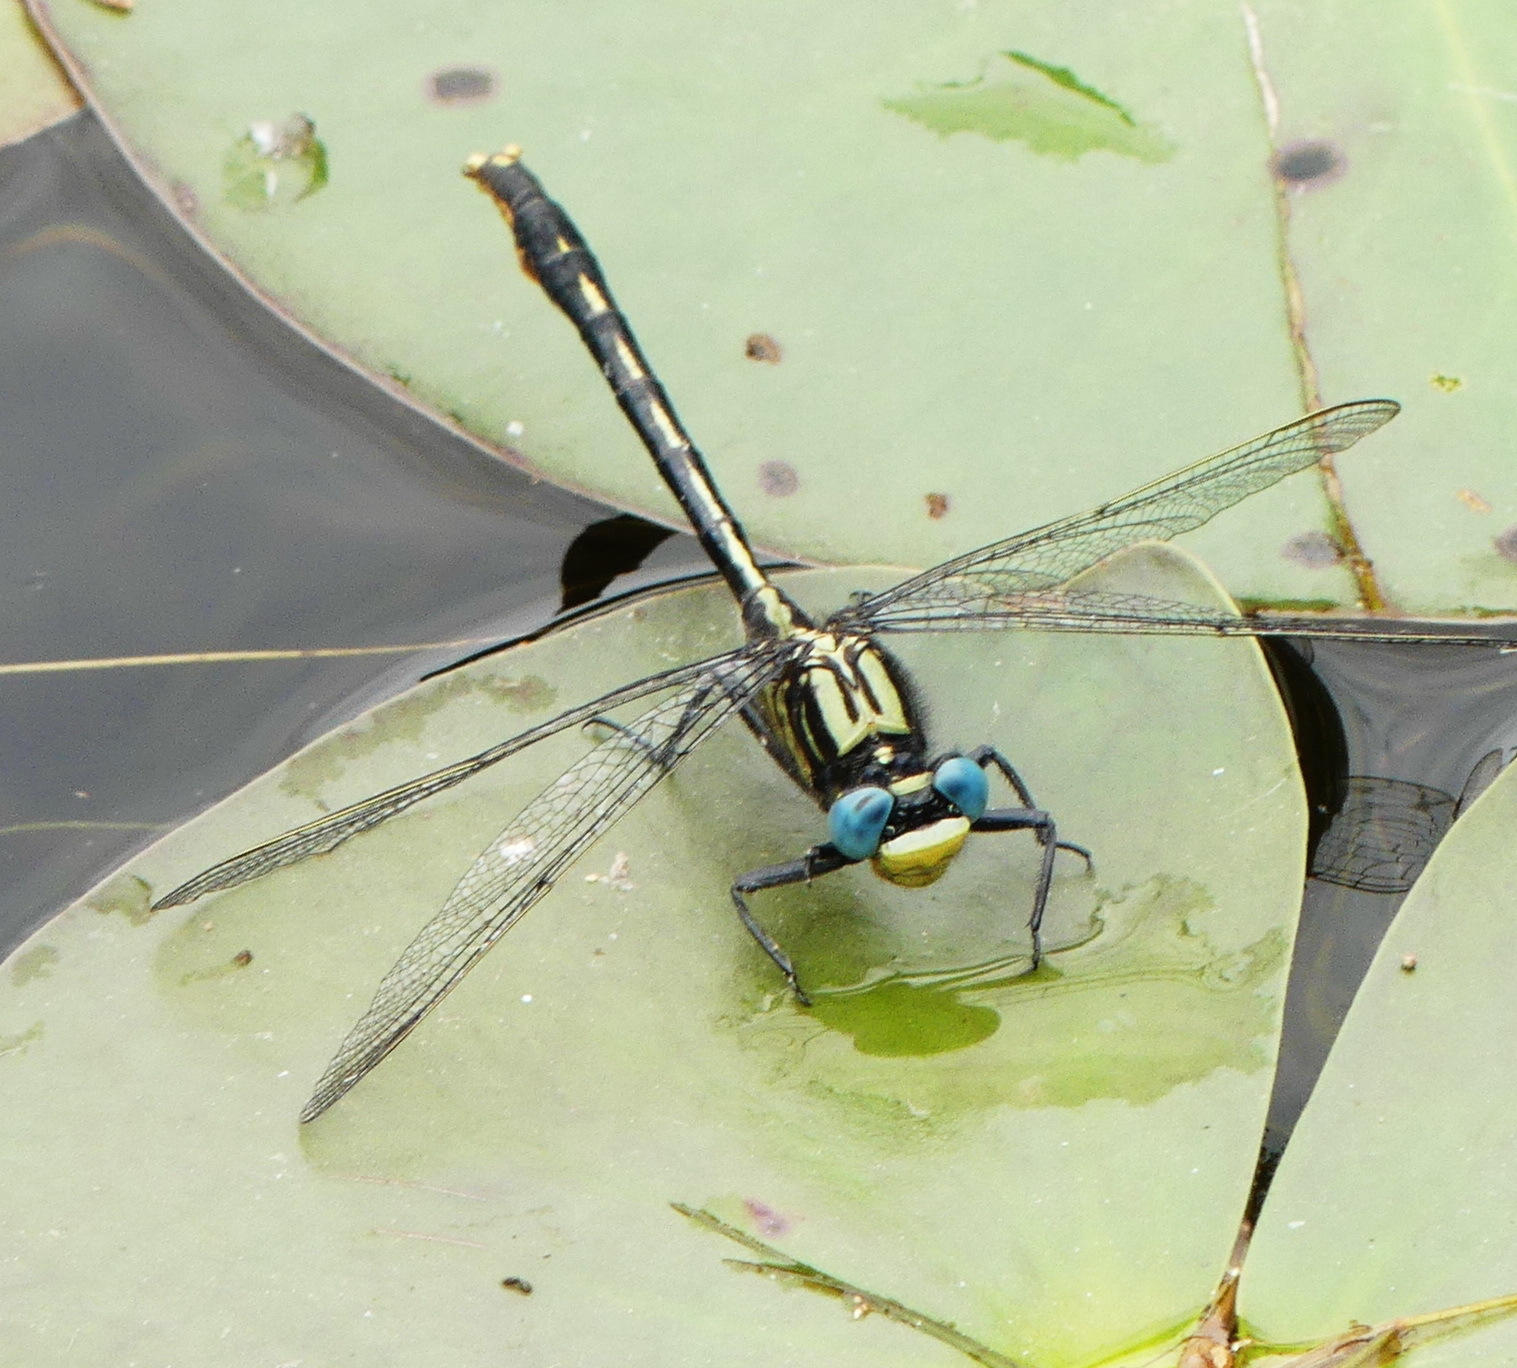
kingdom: Animalia
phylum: Arthropoda
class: Insecta
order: Odonata
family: Gomphidae
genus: Arigomphus
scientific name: Arigomphus furcifer
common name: Lilypad clubtail
